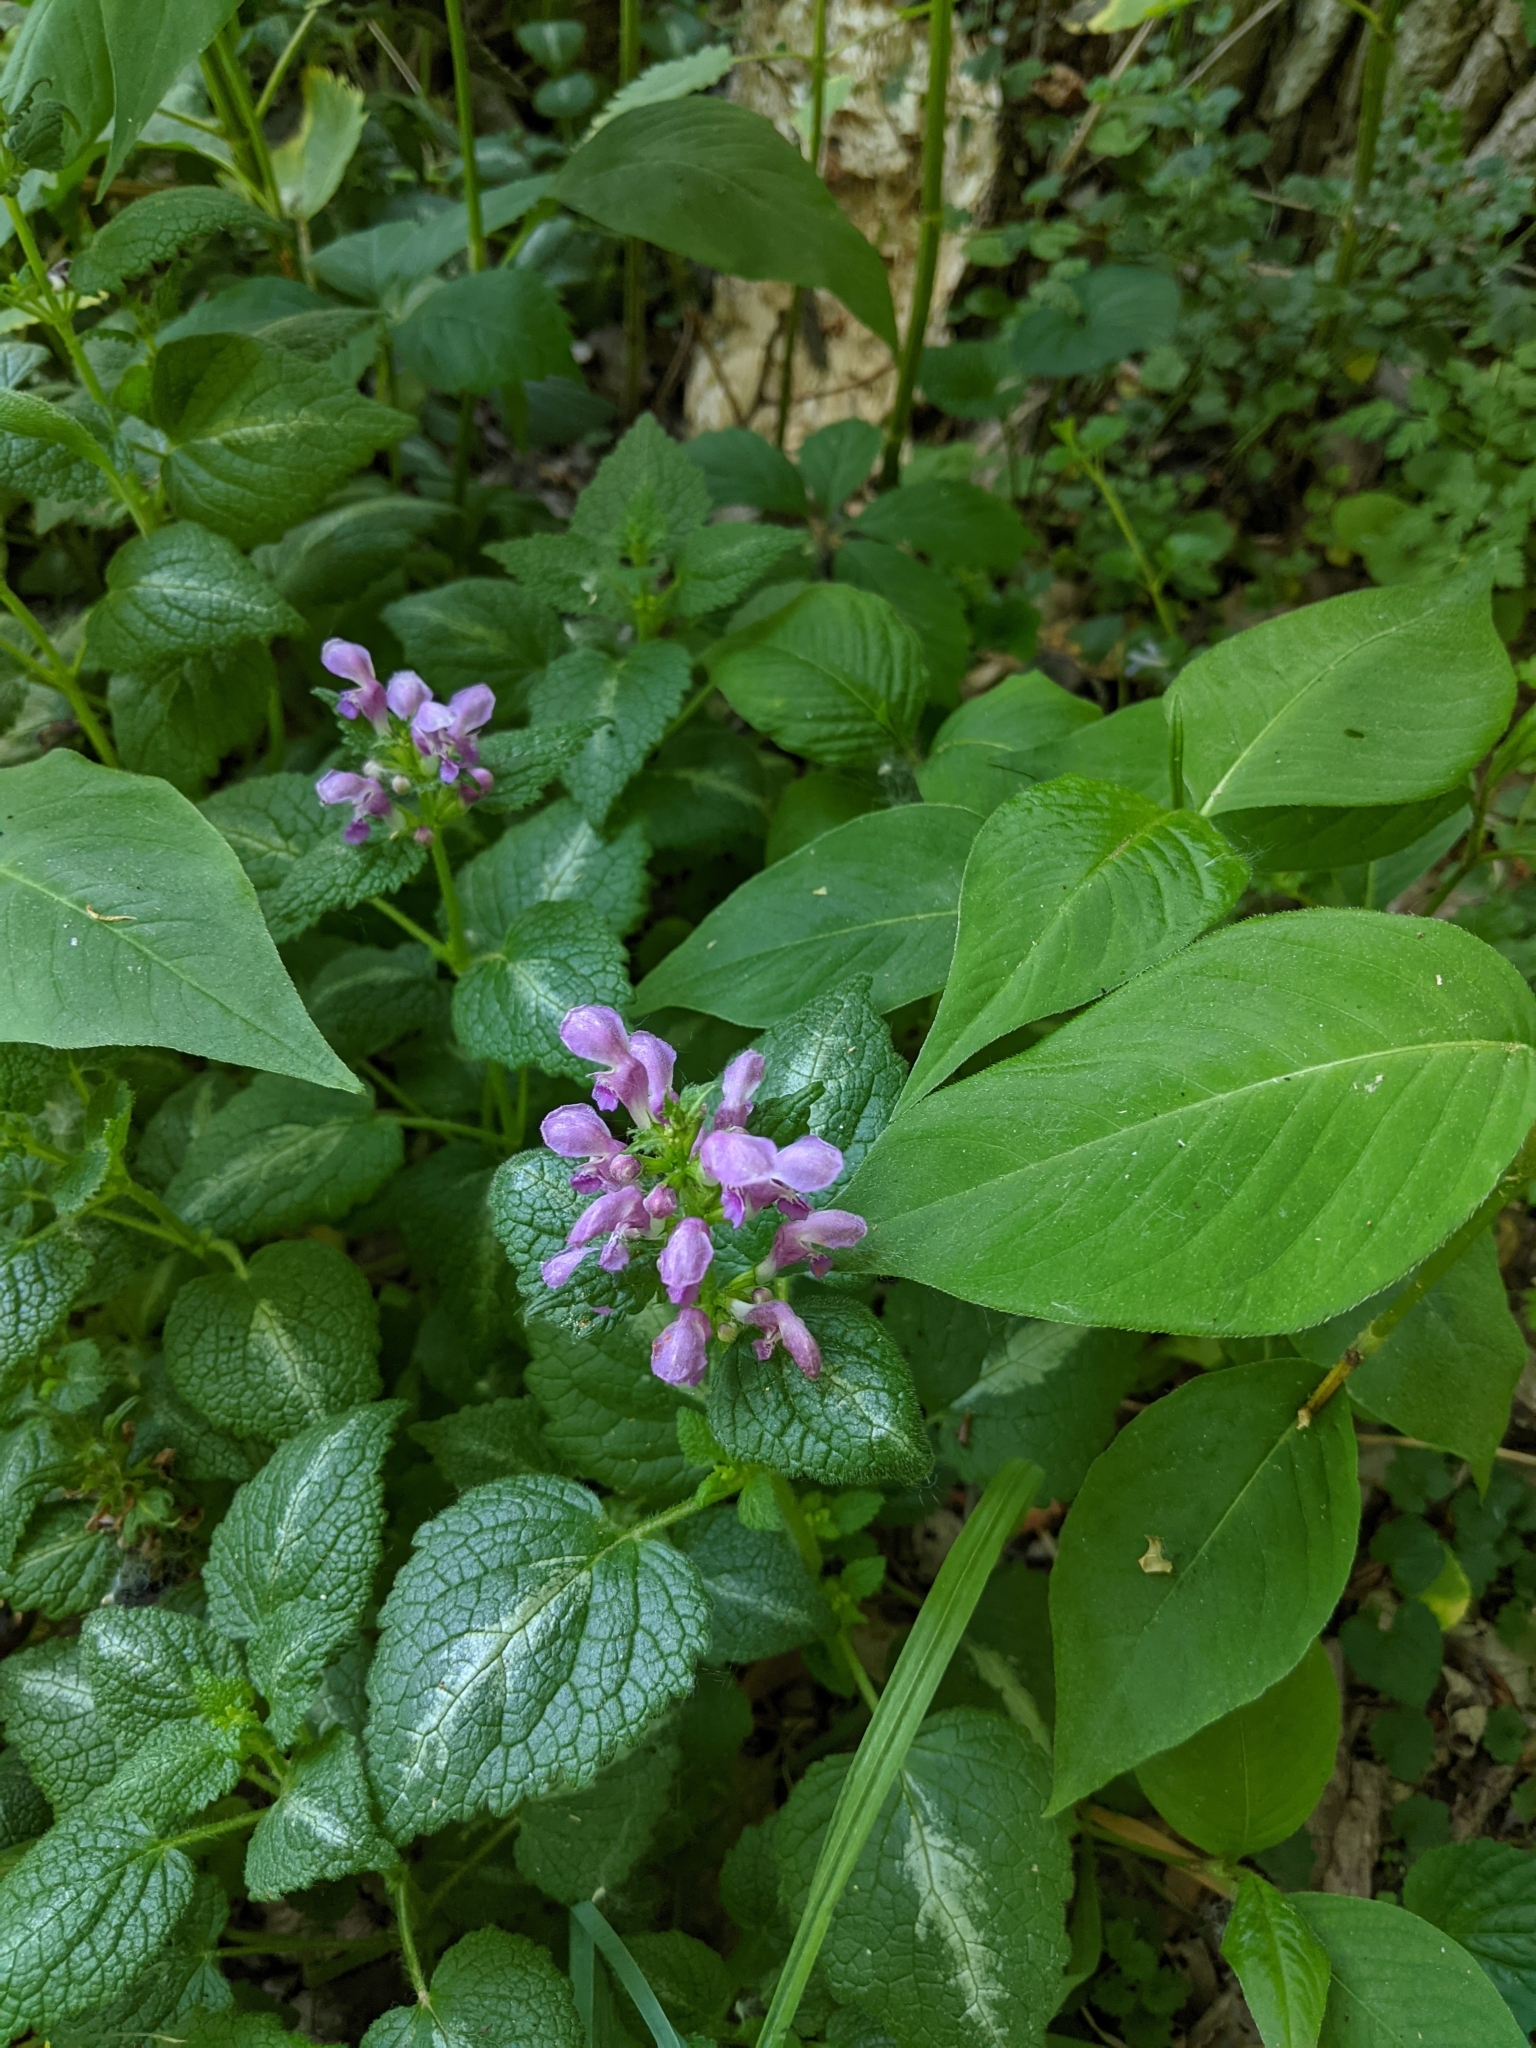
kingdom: Plantae
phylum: Tracheophyta
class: Magnoliopsida
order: Lamiales
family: Lamiaceae
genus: Lamium
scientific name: Lamium maculatum
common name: Spotted dead-nettle
